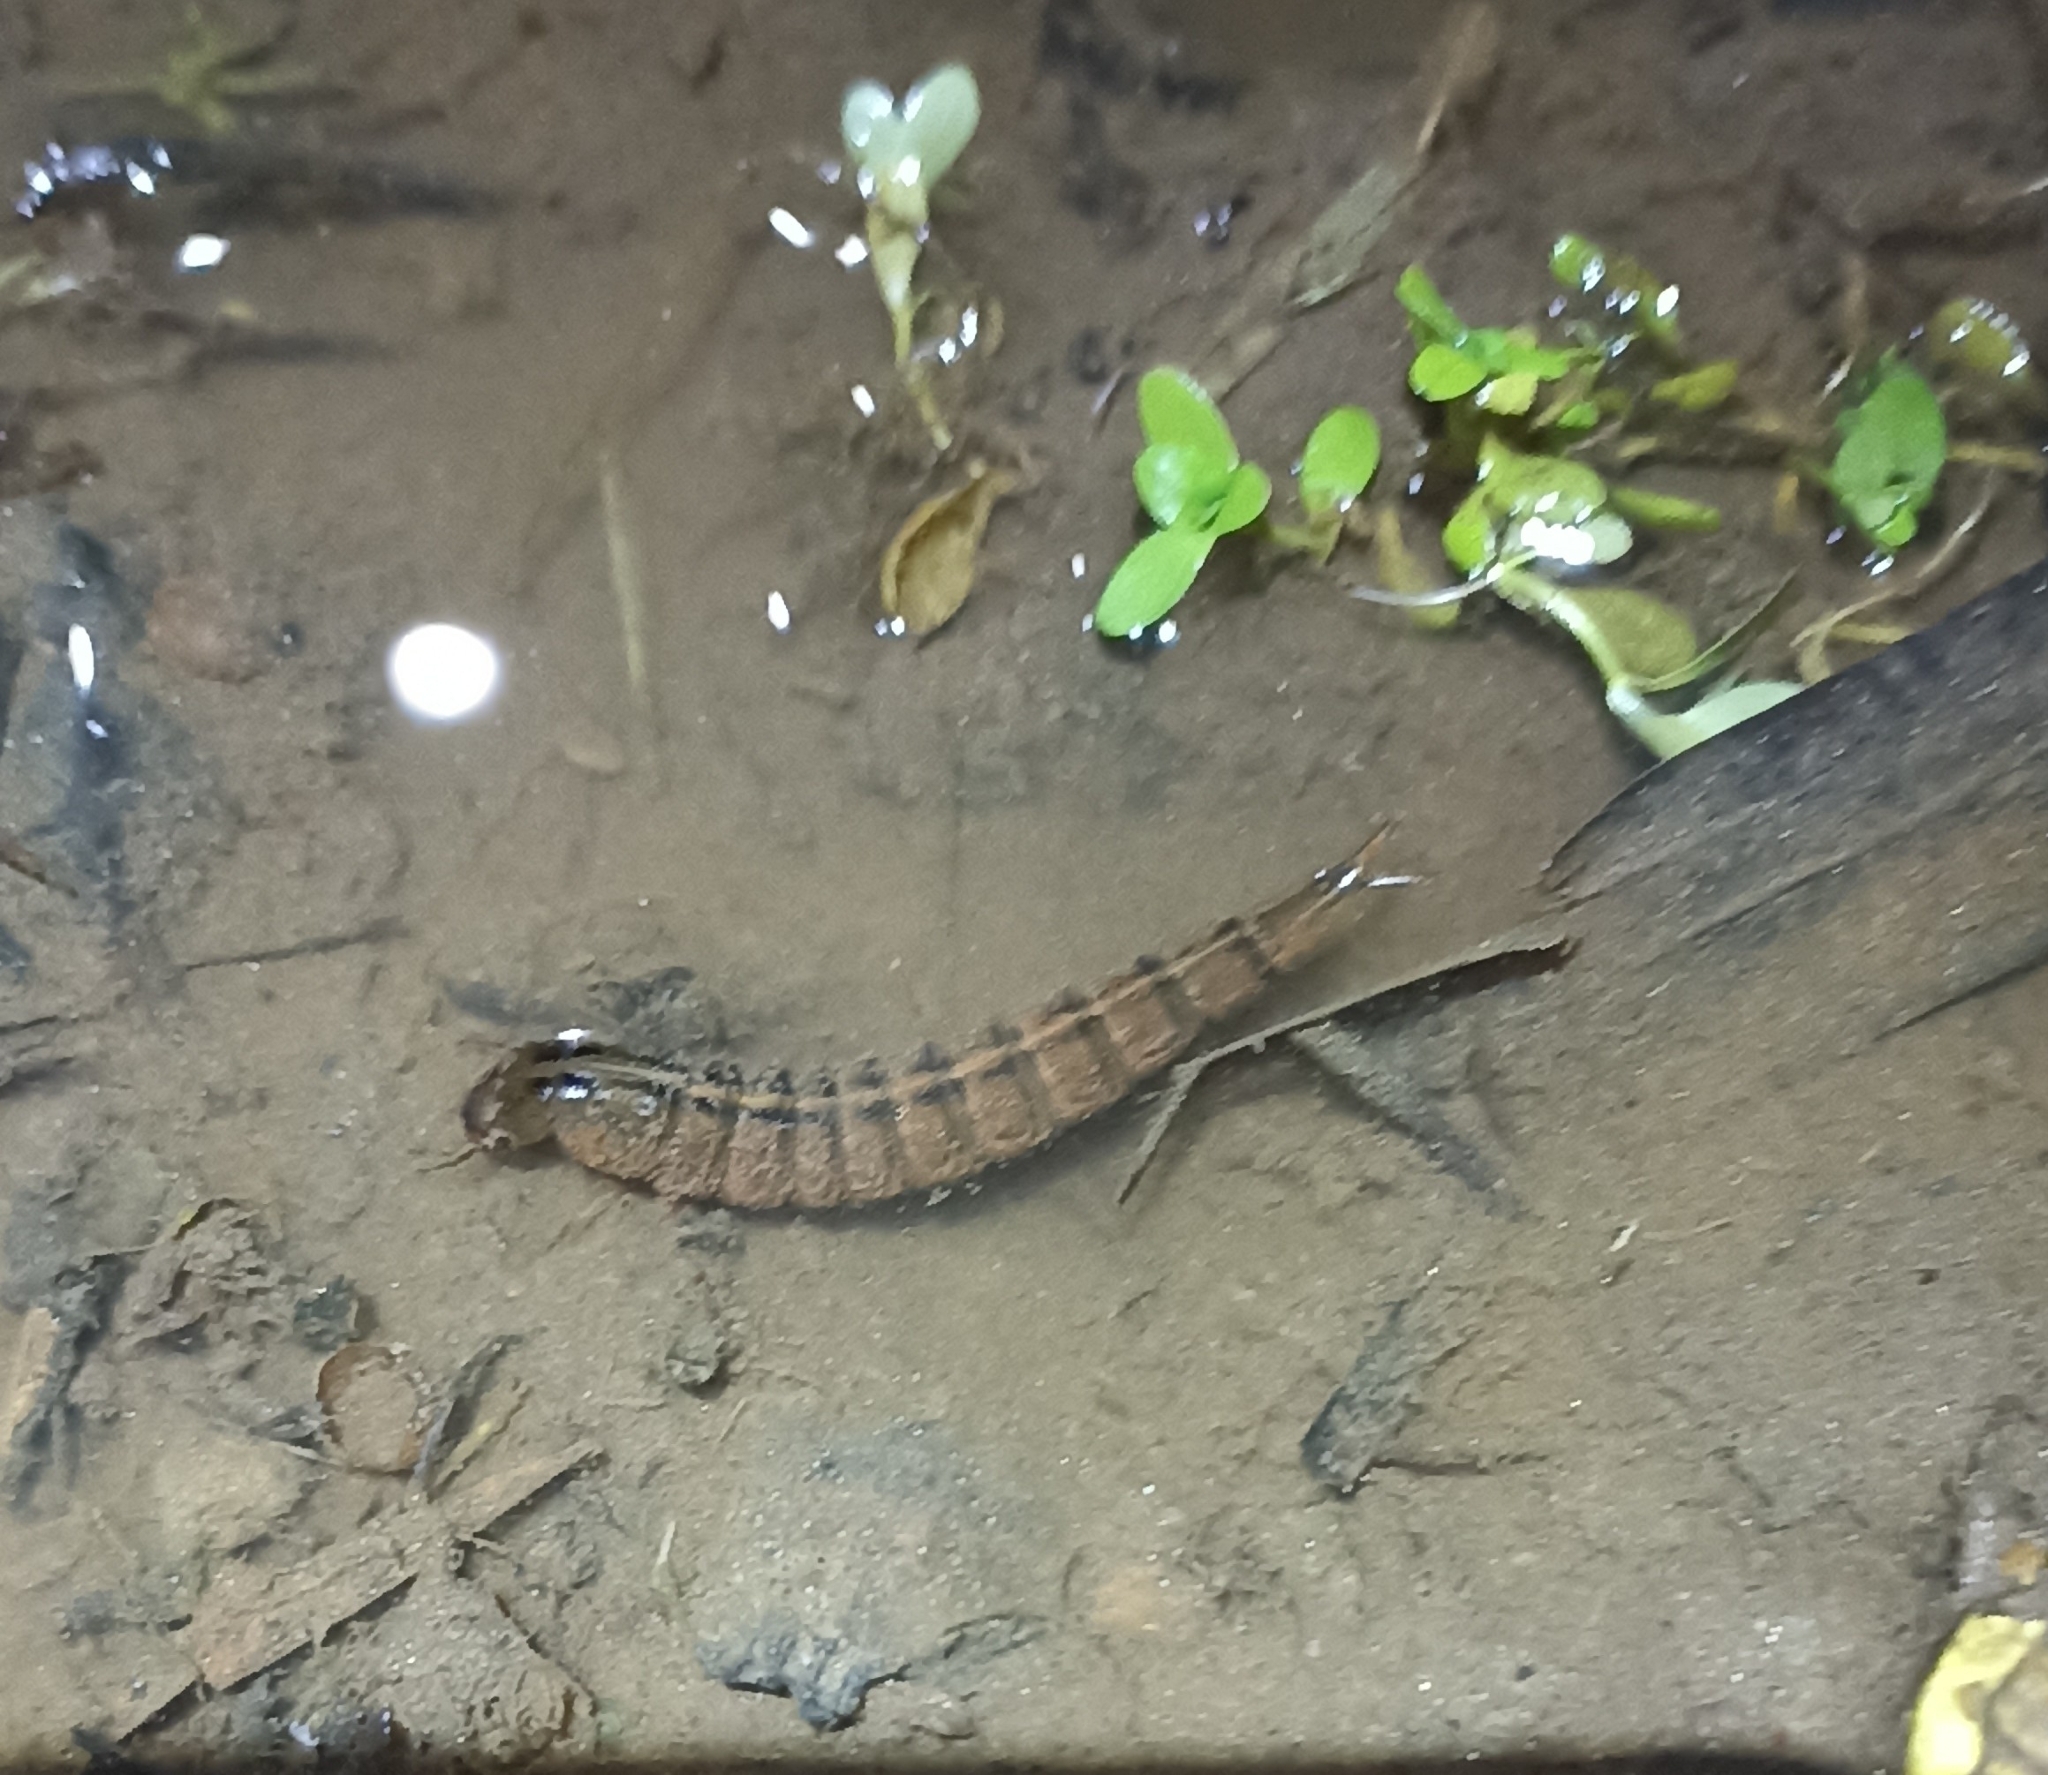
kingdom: Animalia
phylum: Arthropoda
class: Insecta
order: Coleoptera
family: Dytiscidae
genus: Dytiscus
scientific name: Dytiscus
